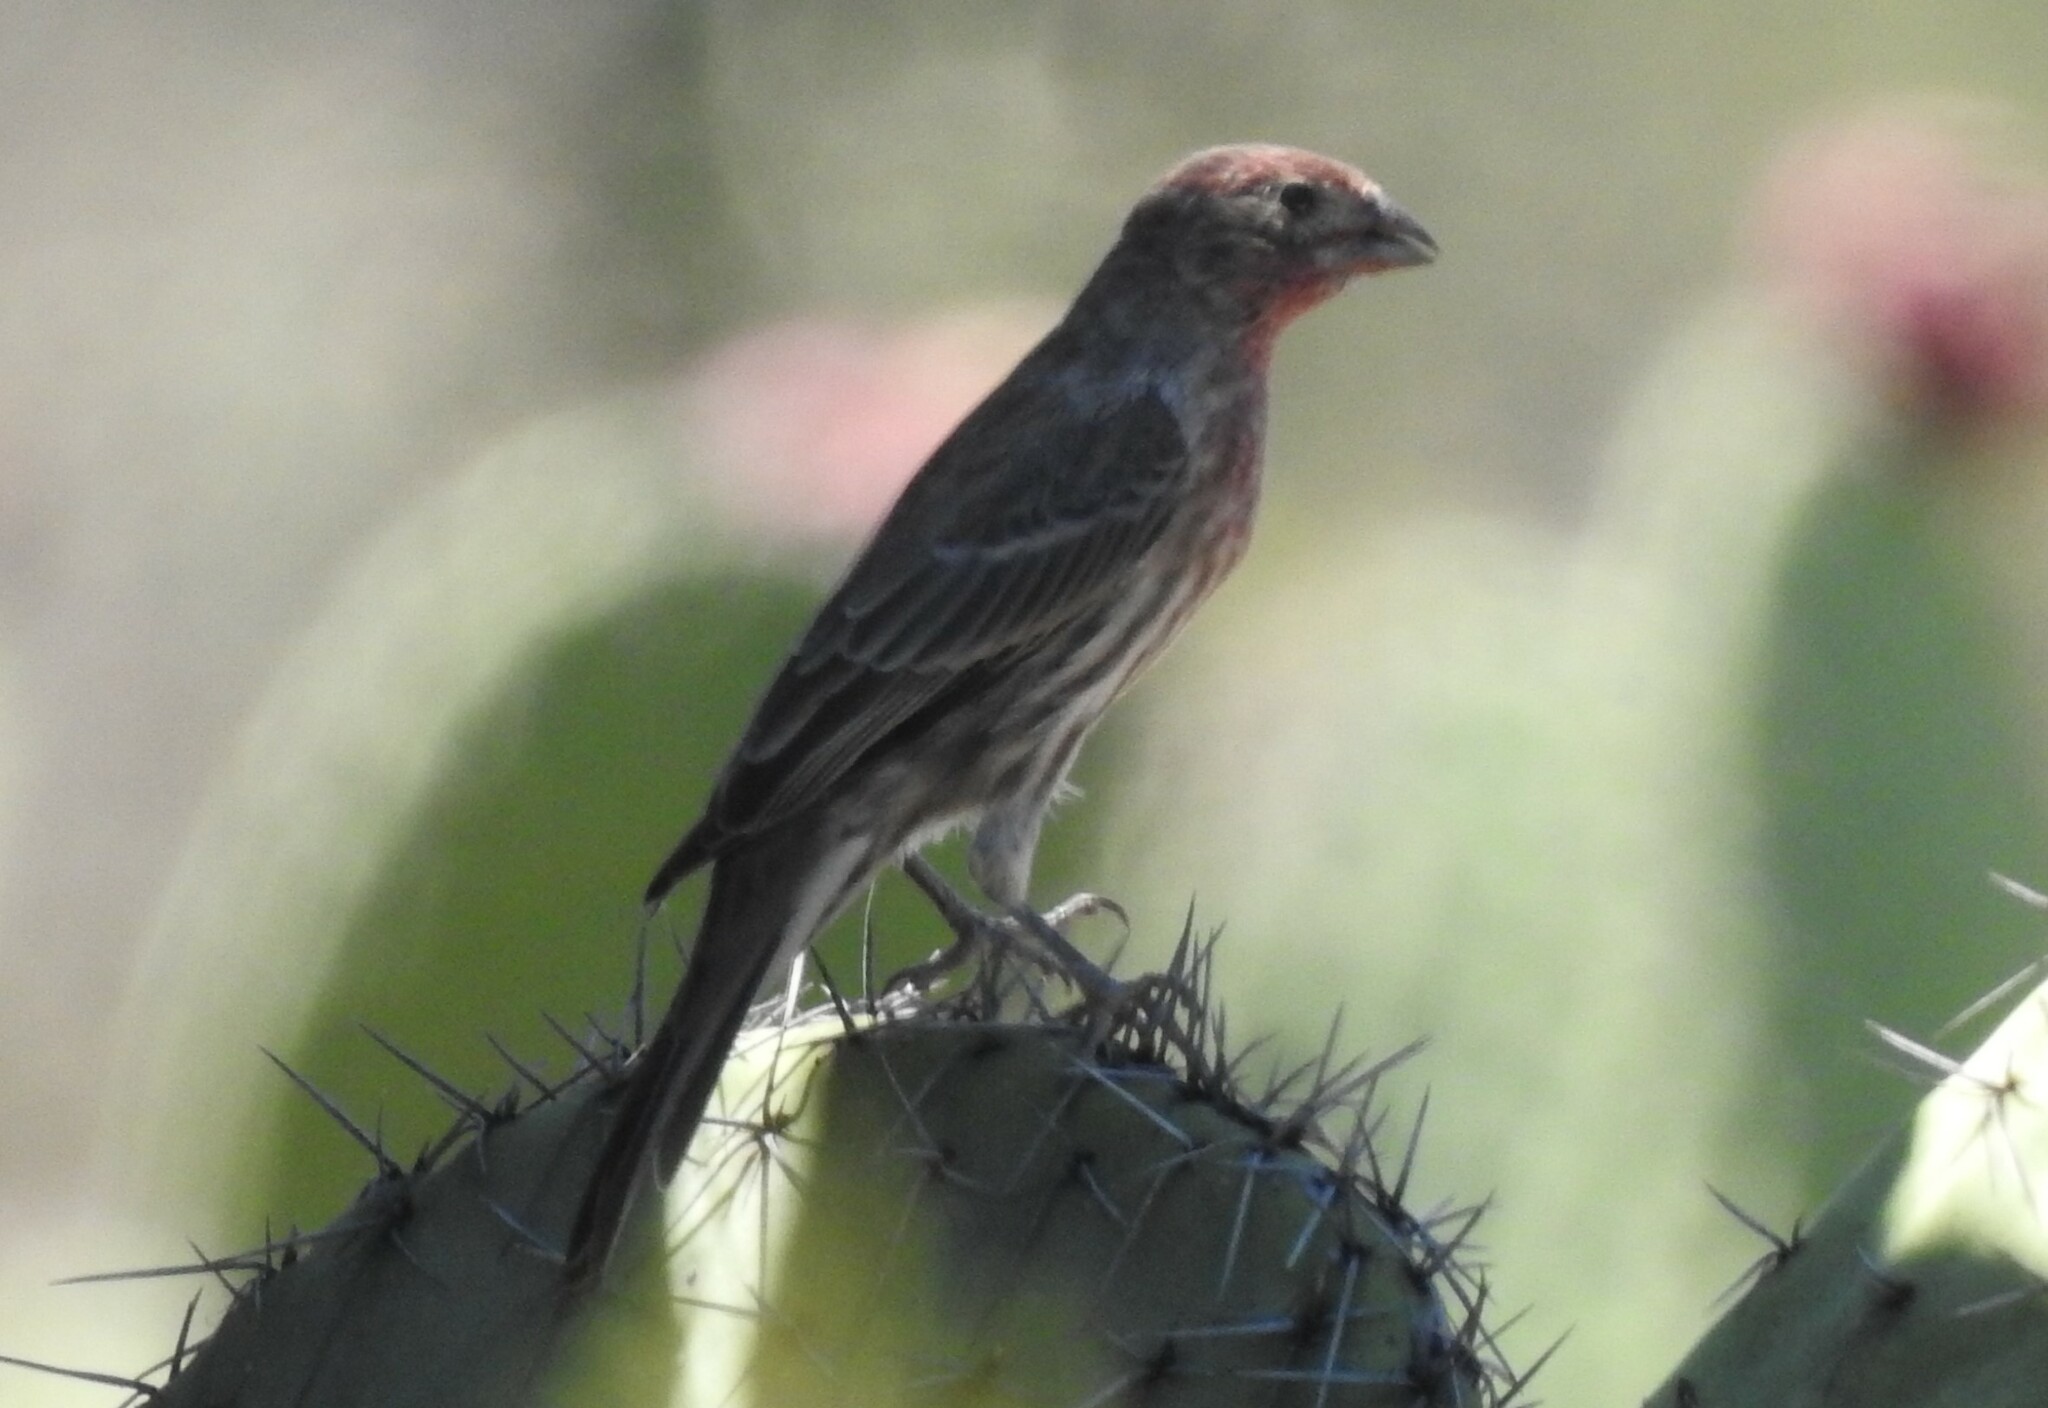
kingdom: Animalia
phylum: Chordata
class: Aves
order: Passeriformes
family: Fringillidae
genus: Haemorhous
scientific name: Haemorhous mexicanus
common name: House finch
